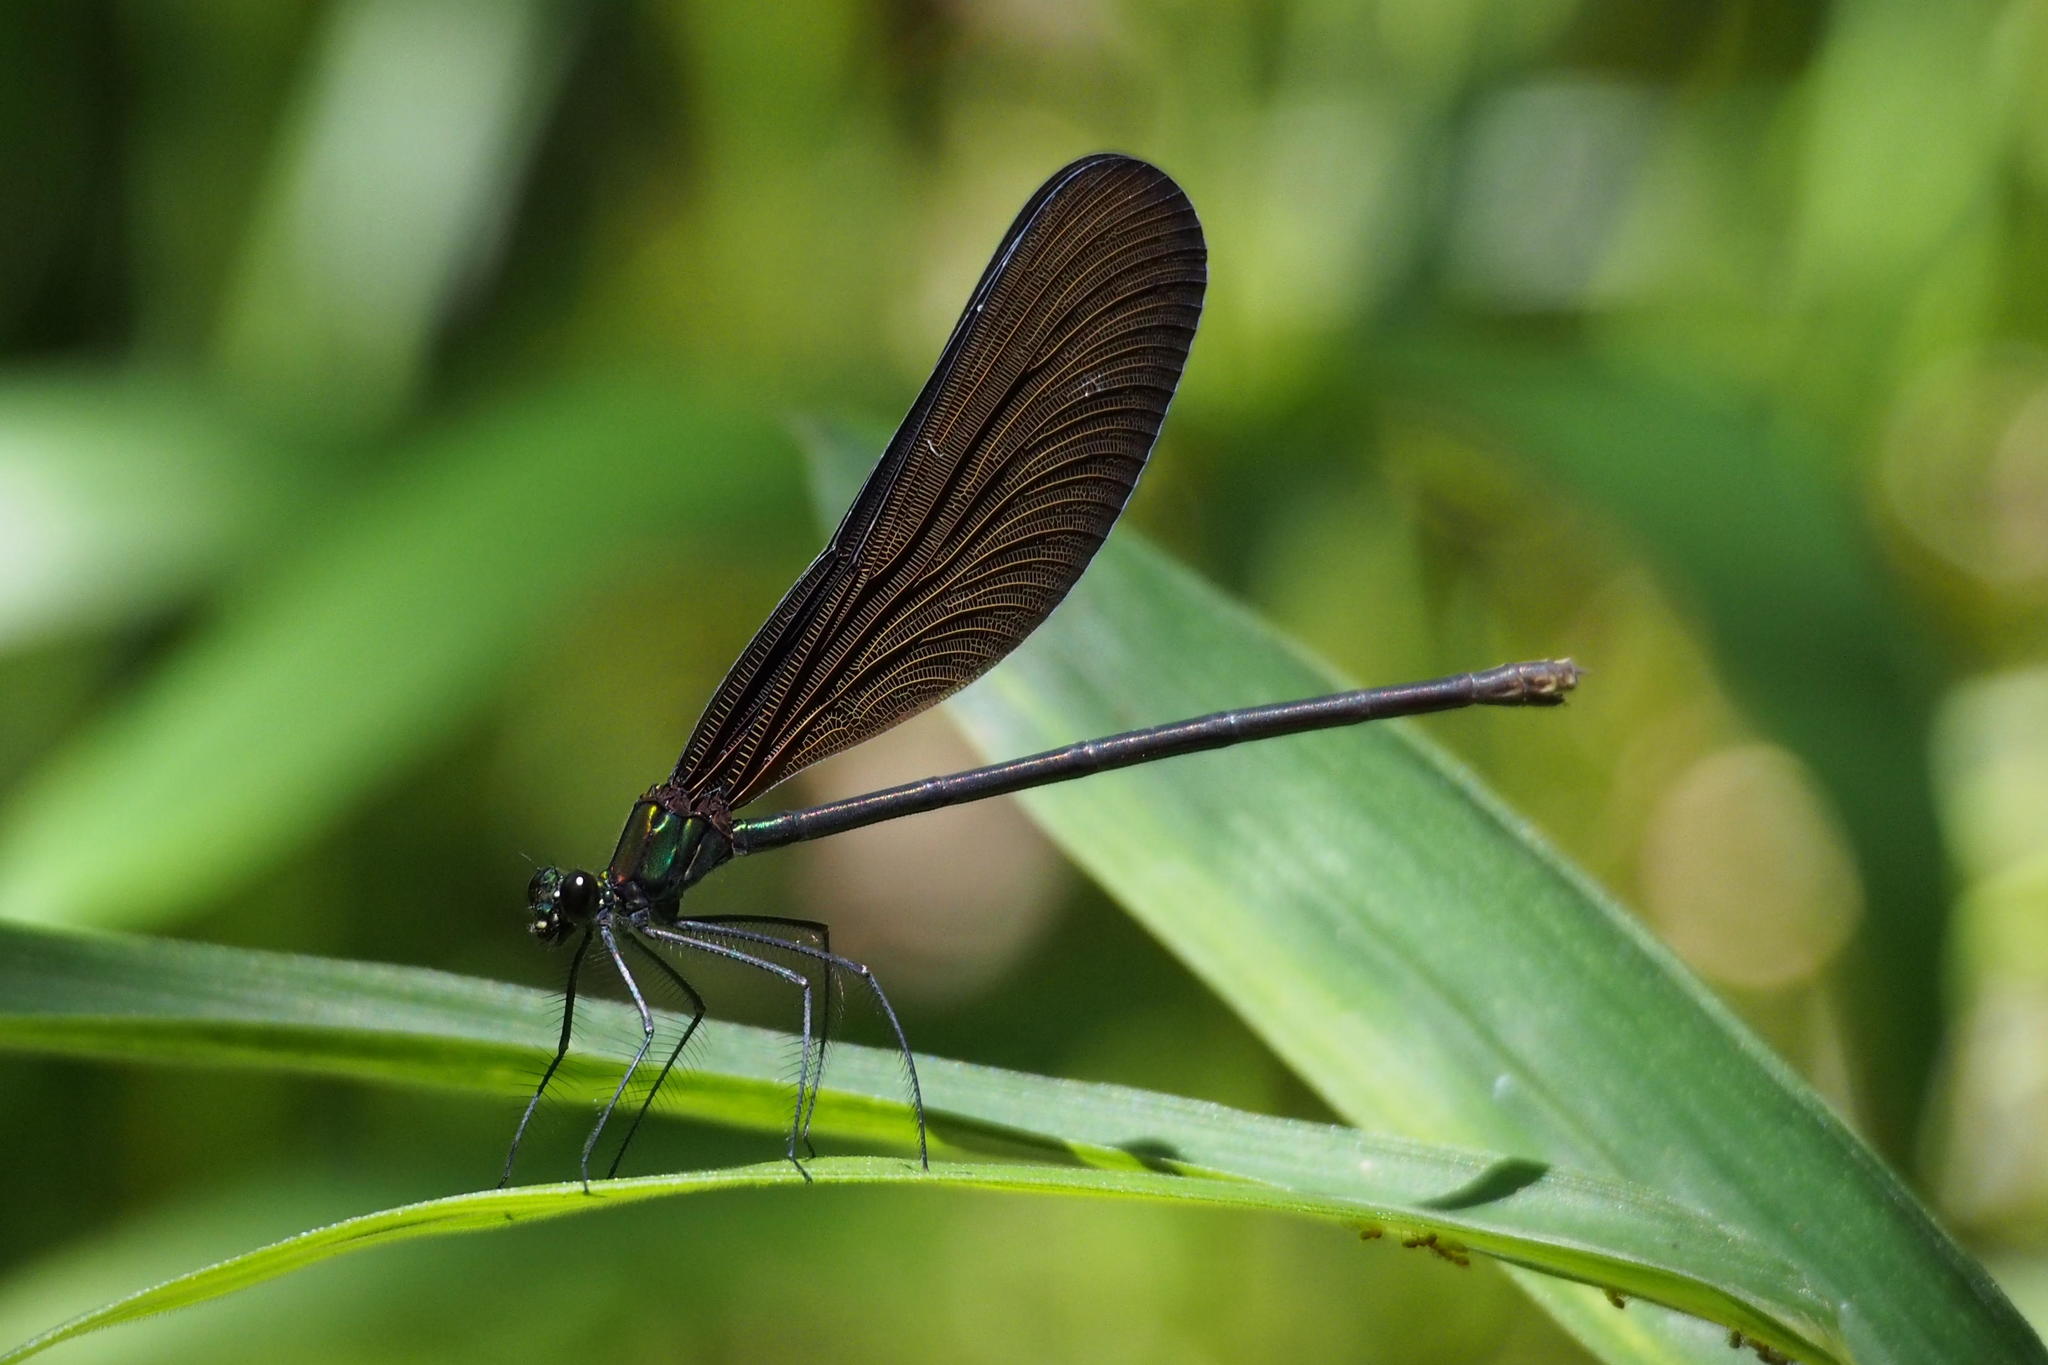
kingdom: Animalia
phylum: Arthropoda
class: Insecta
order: Odonata
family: Calopterygidae
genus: Atrocalopteryx
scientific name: Atrocalopteryx atrata
